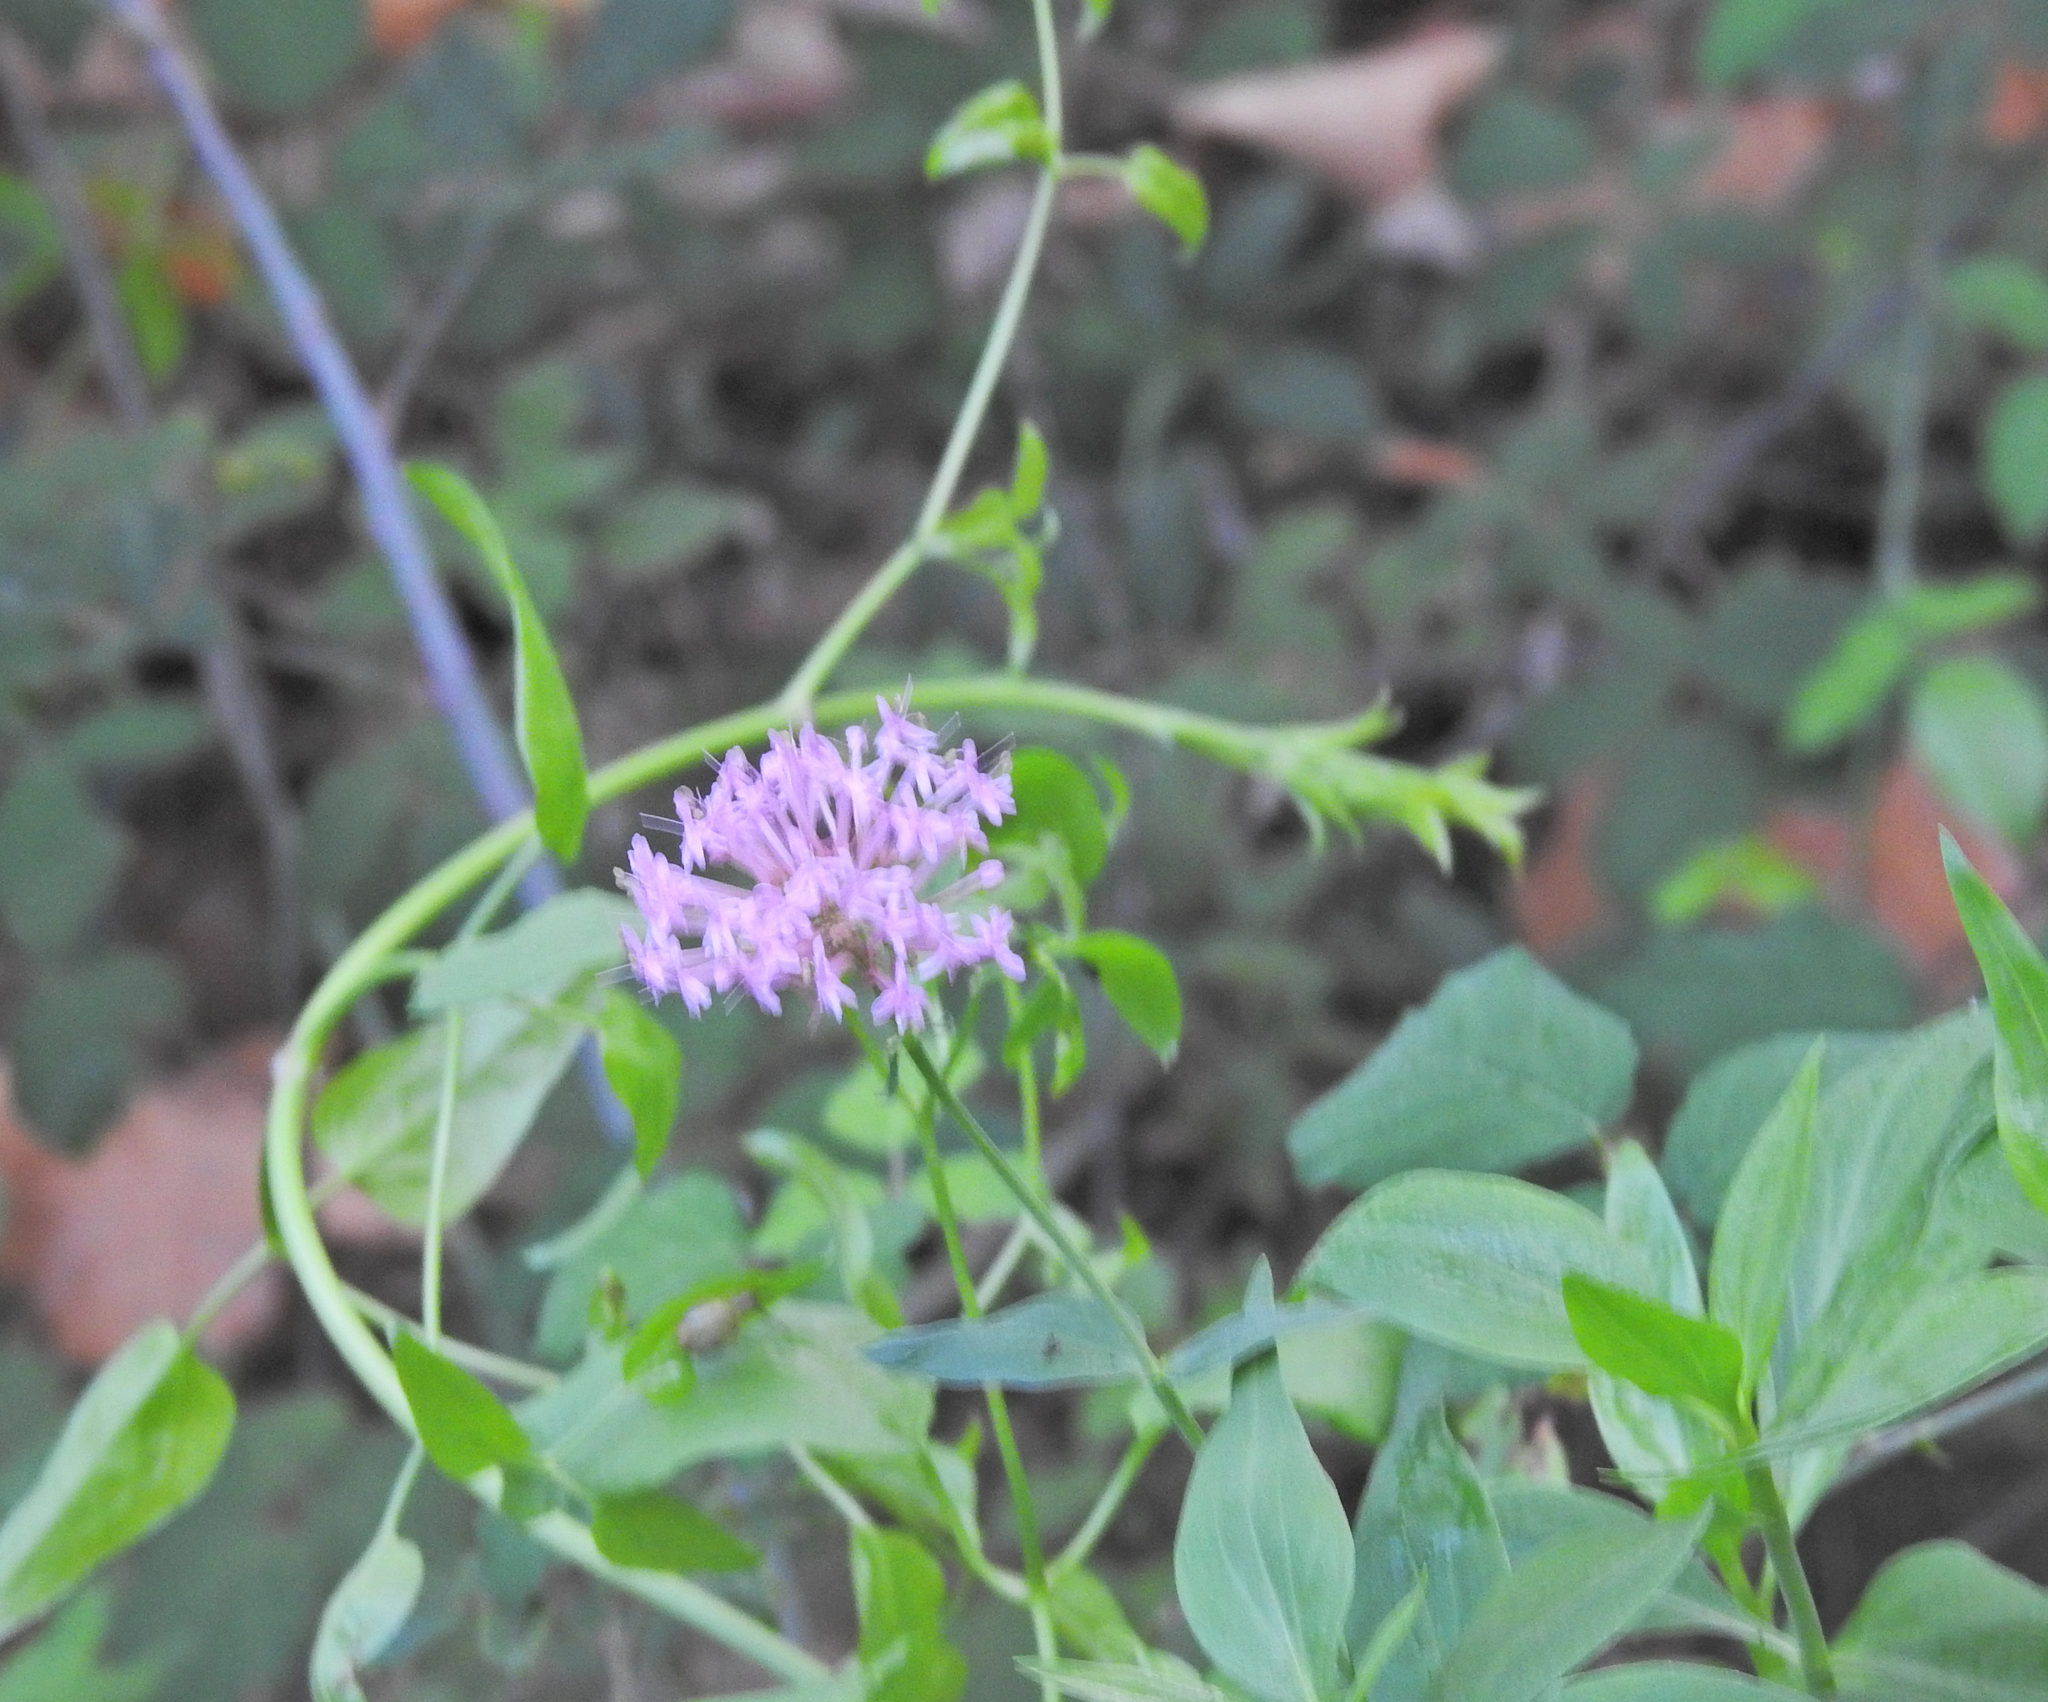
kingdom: Plantae
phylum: Tracheophyta
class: Magnoliopsida
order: Dipsacales
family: Caprifoliaceae
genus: Centranthus
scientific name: Centranthus ruber
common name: Red valerian
